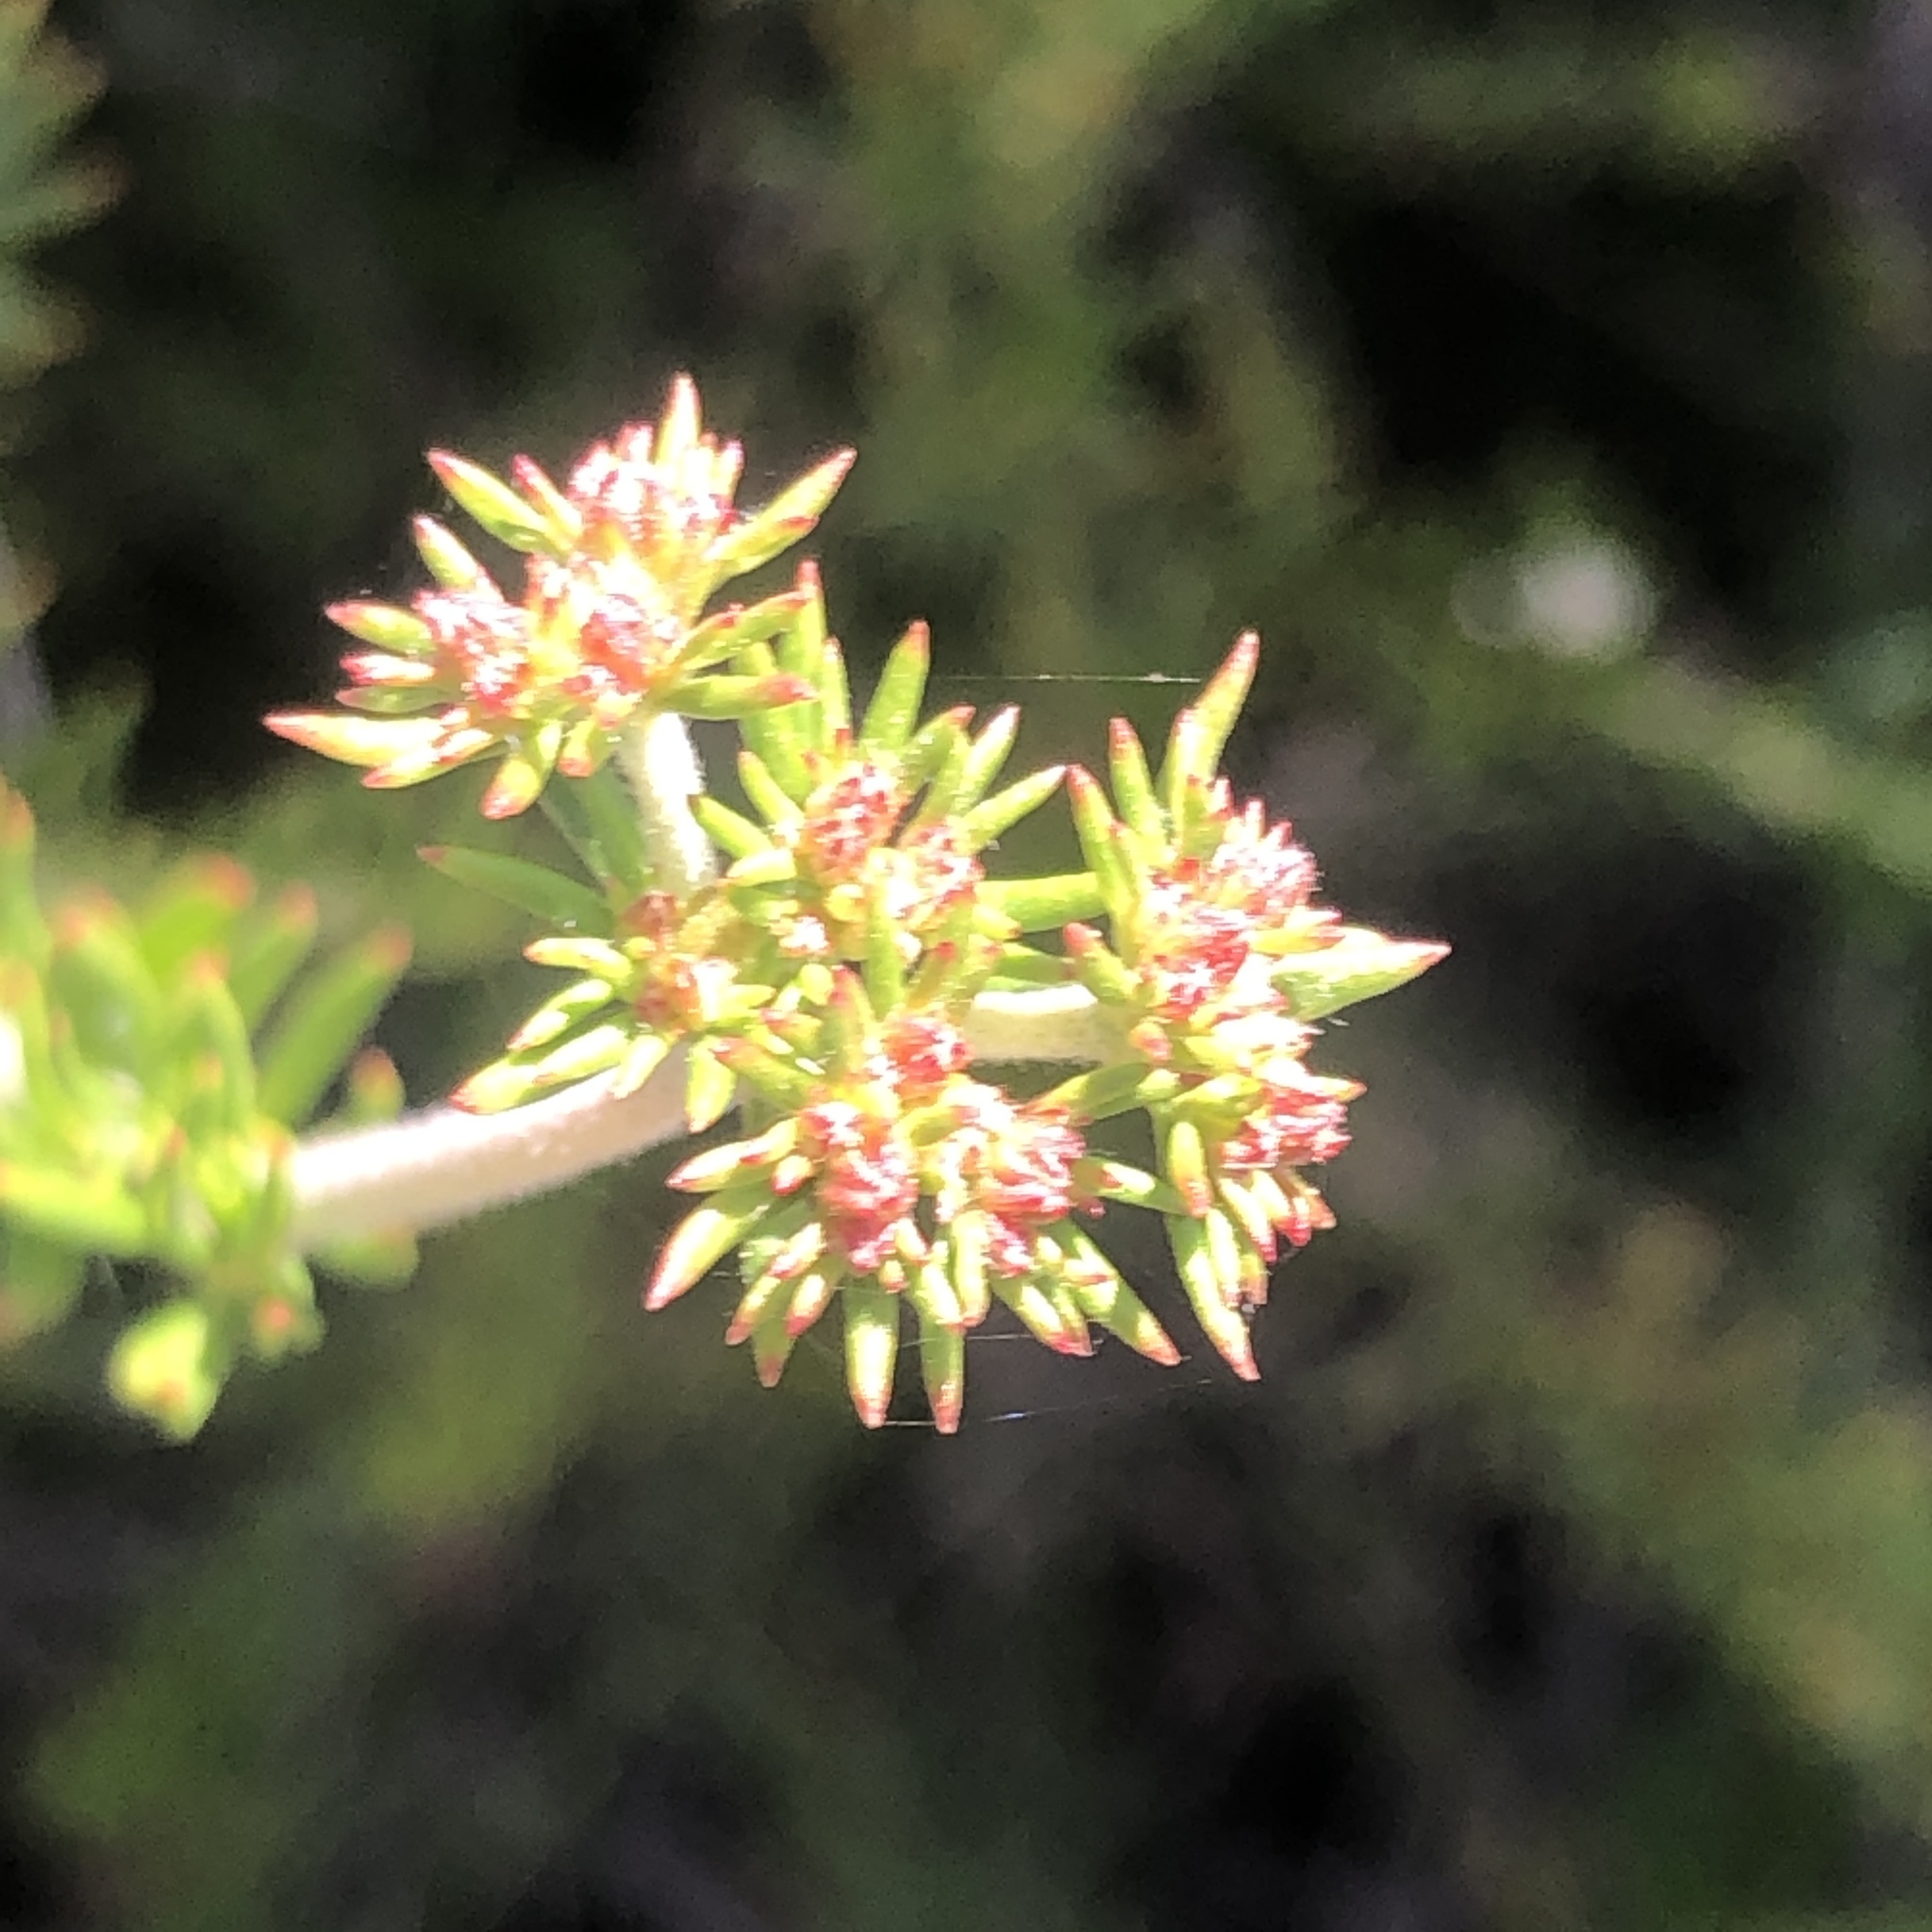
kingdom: Plantae
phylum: Tracheophyta
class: Magnoliopsida
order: Caryophyllales
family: Polygonaceae
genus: Eriogonum
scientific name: Eriogonum fasciculatum
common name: California wild buckwheat
